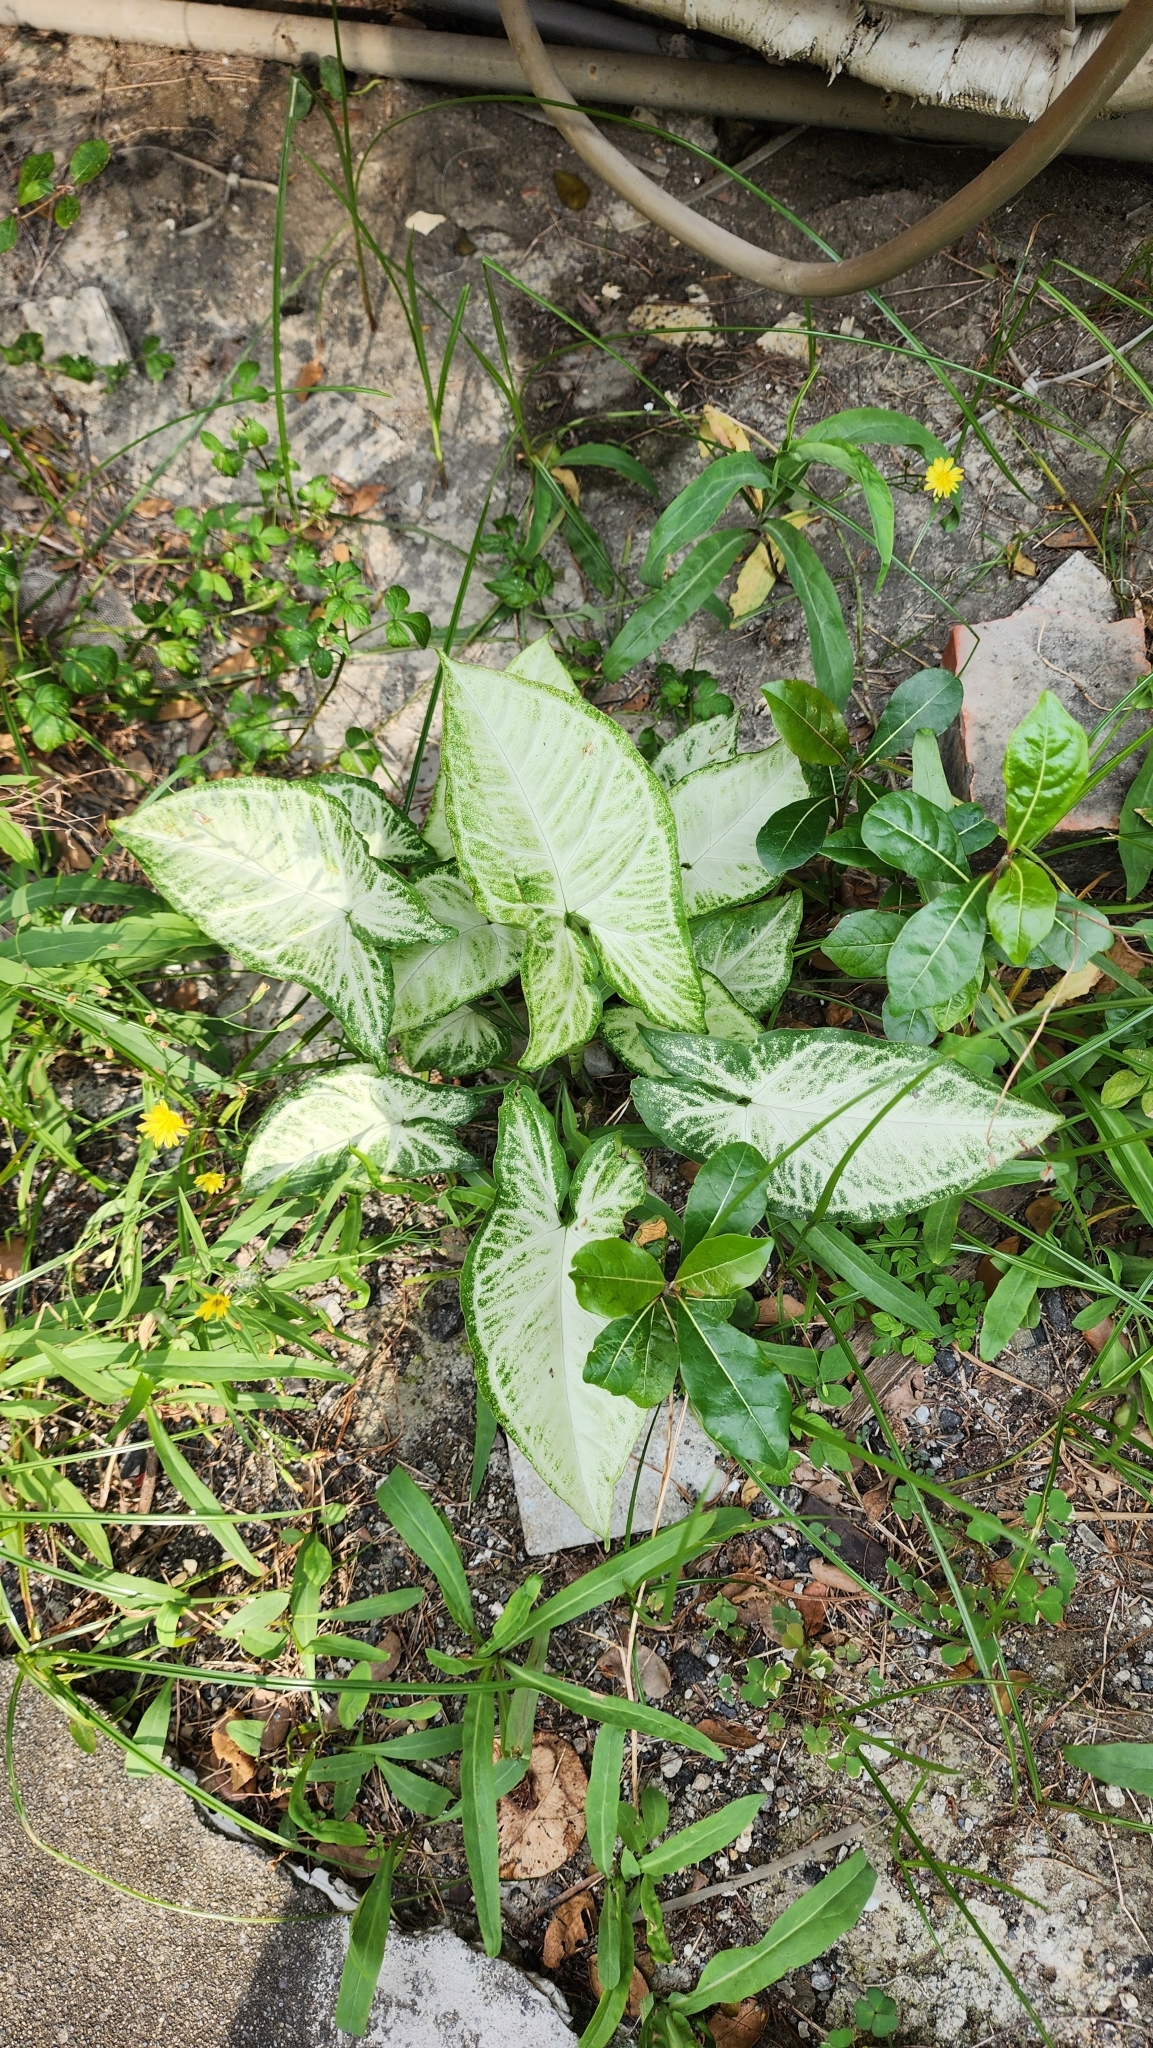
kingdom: Plantae
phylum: Tracheophyta
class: Liliopsida
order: Alismatales
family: Araceae
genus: Syngonium
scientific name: Syngonium podophyllum
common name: American evergreen
